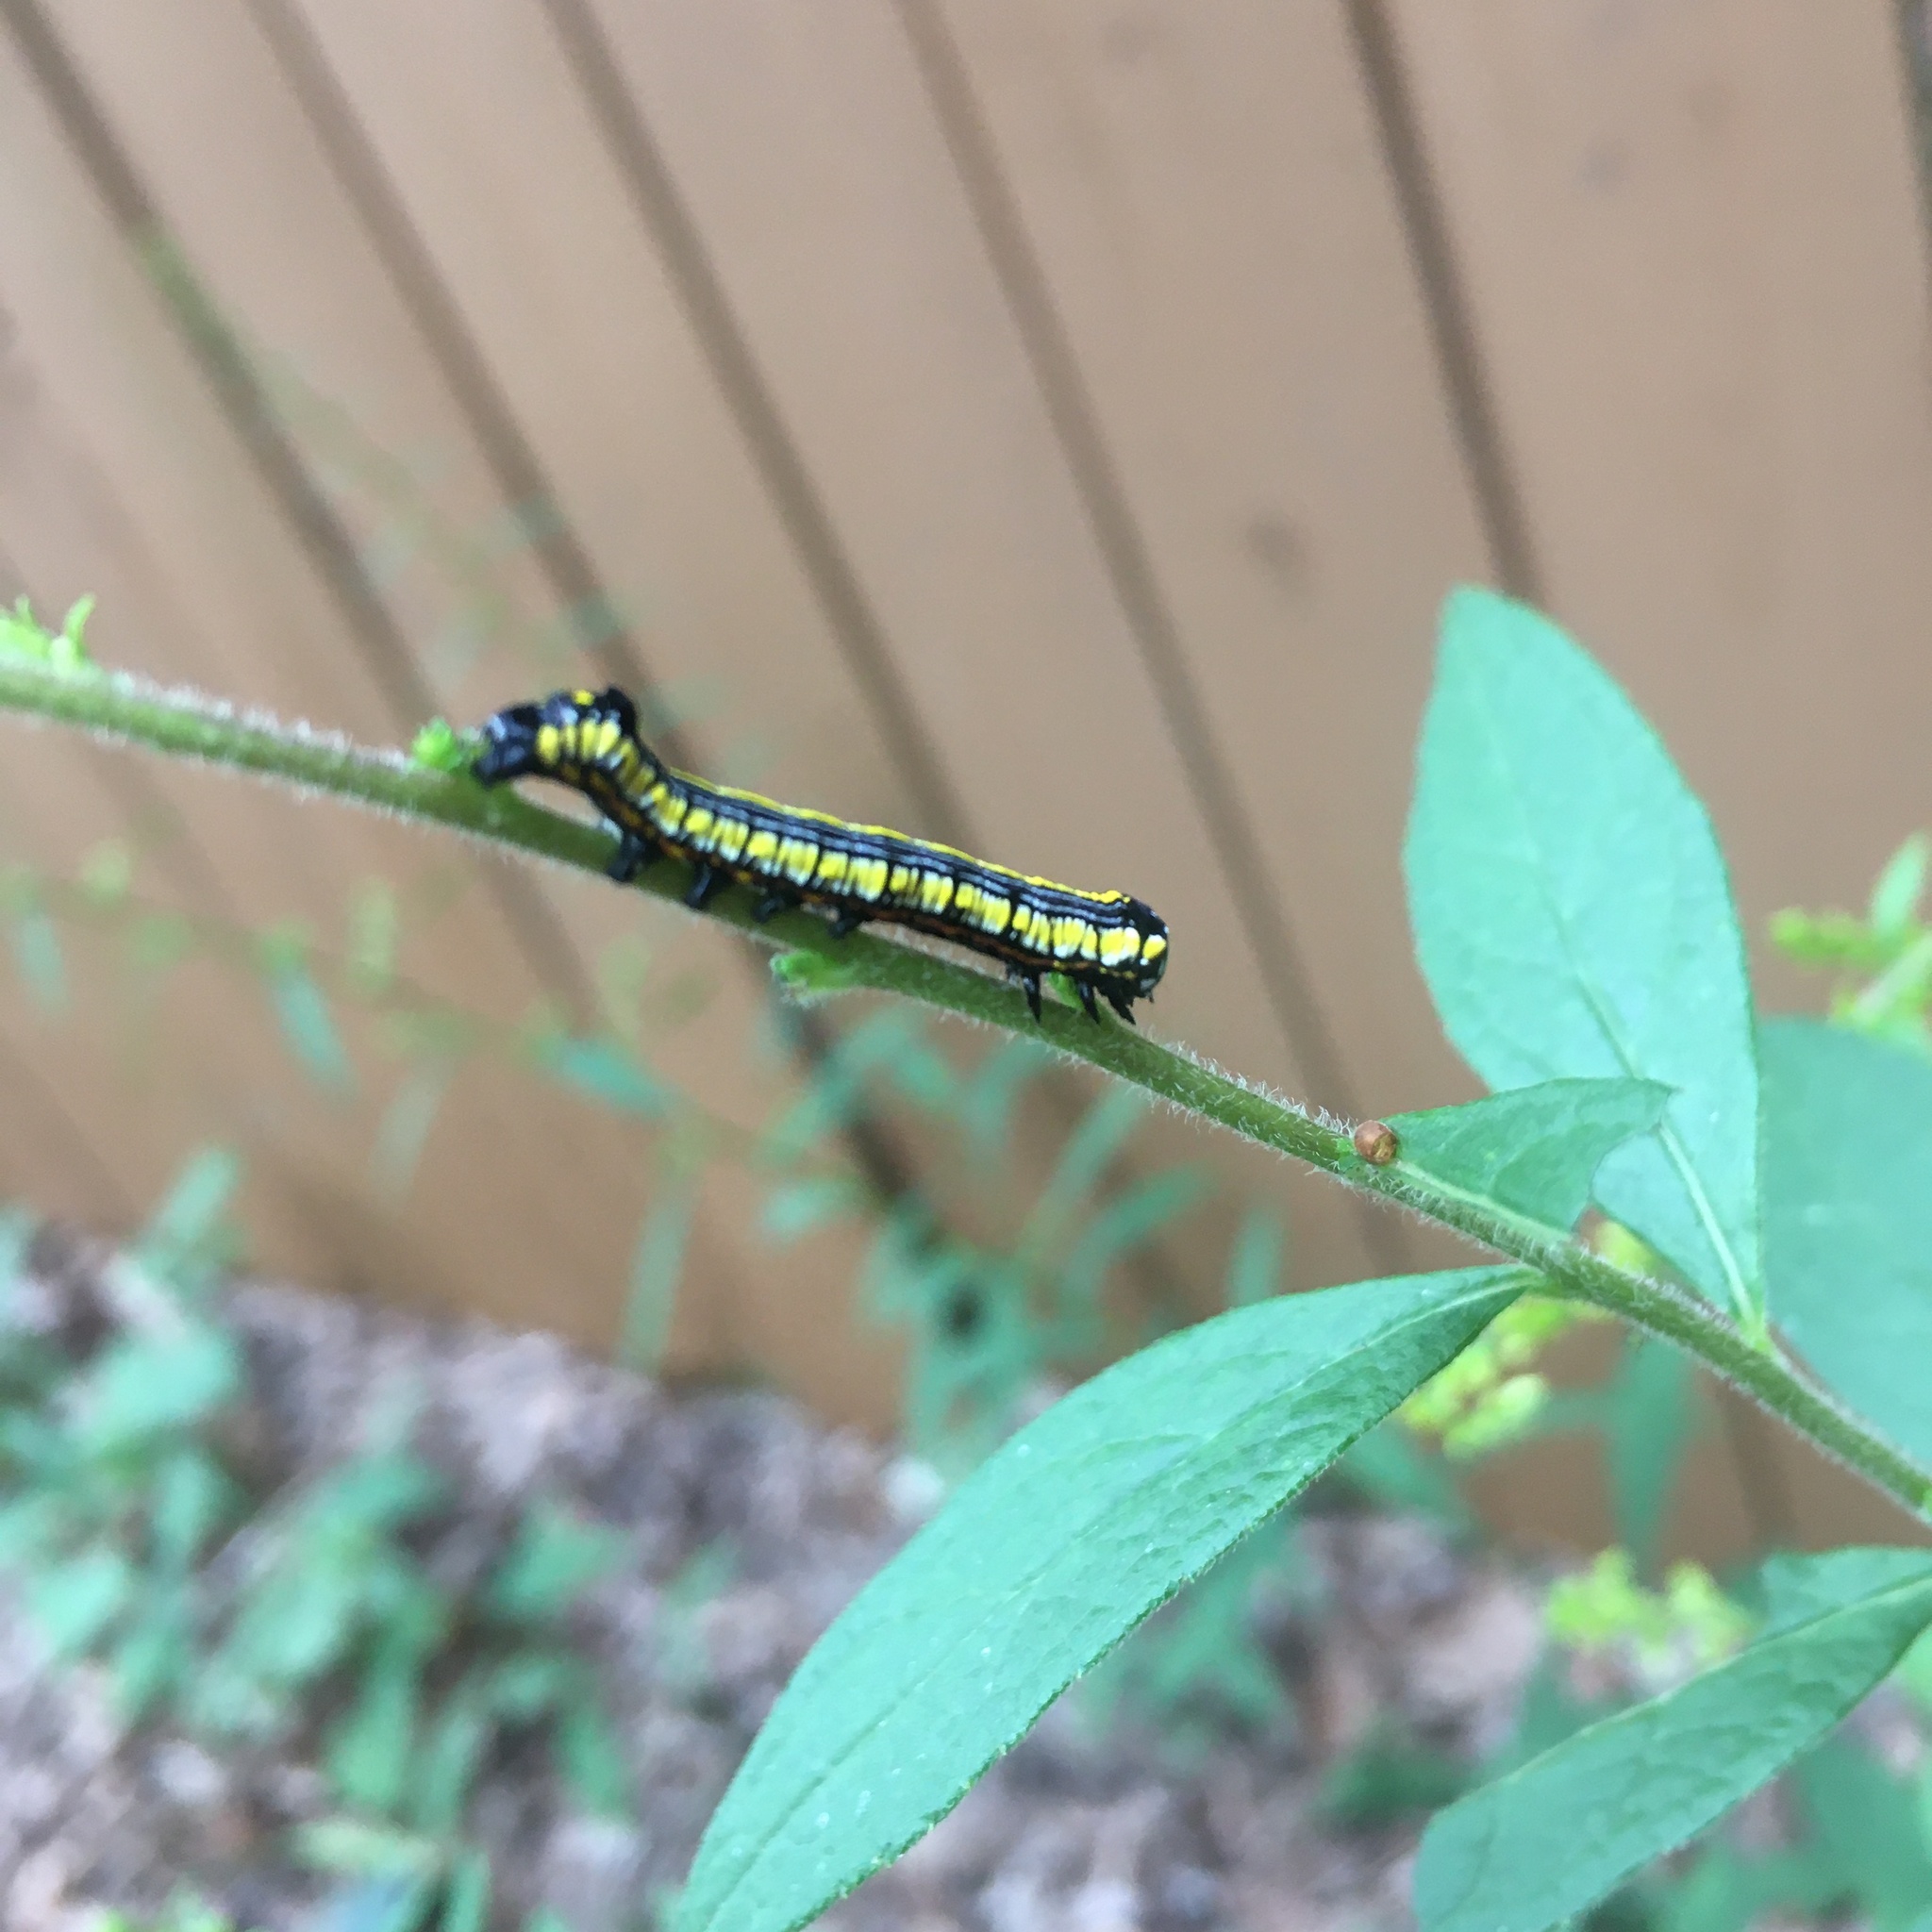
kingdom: Animalia
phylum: Arthropoda
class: Insecta
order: Lepidoptera
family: Noctuidae
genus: Cucullia
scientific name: Cucullia convexipennis
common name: Brown-hooded owlet
